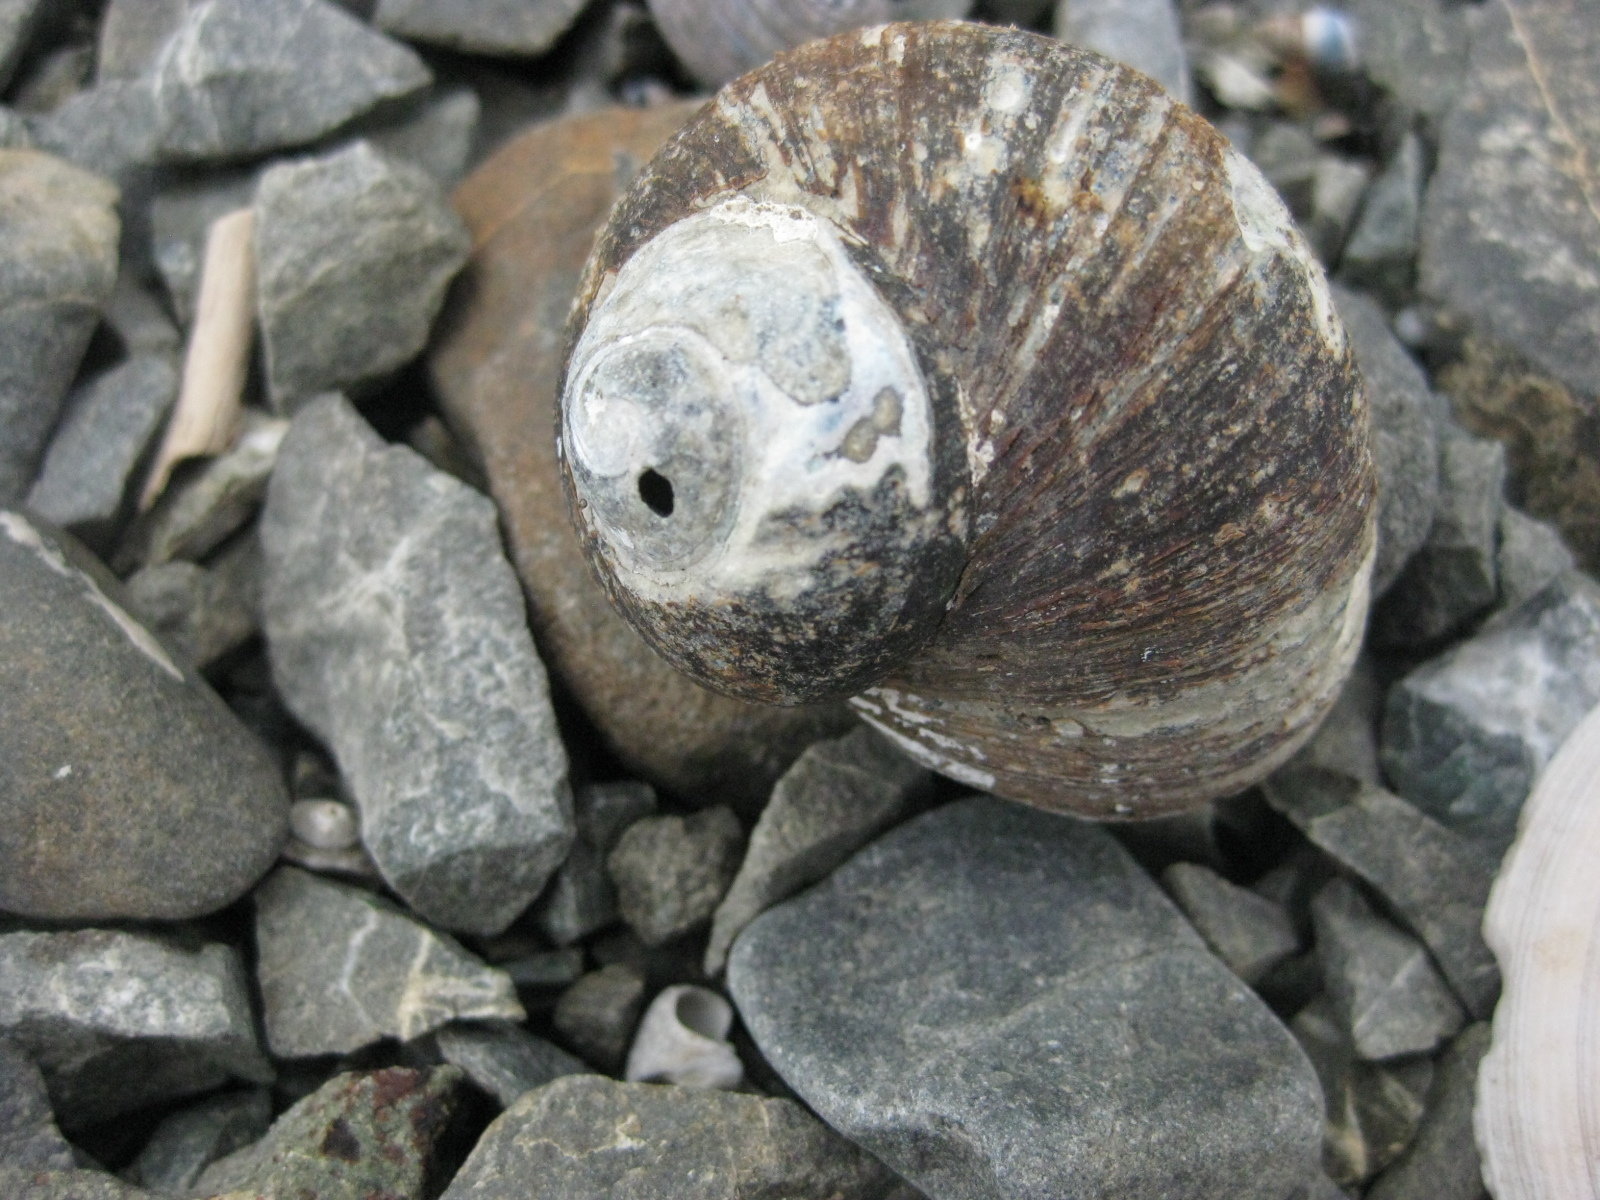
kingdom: Animalia
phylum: Mollusca
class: Gastropoda
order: Trochida
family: Turbinidae
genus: Lunella
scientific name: Lunella smaragda
